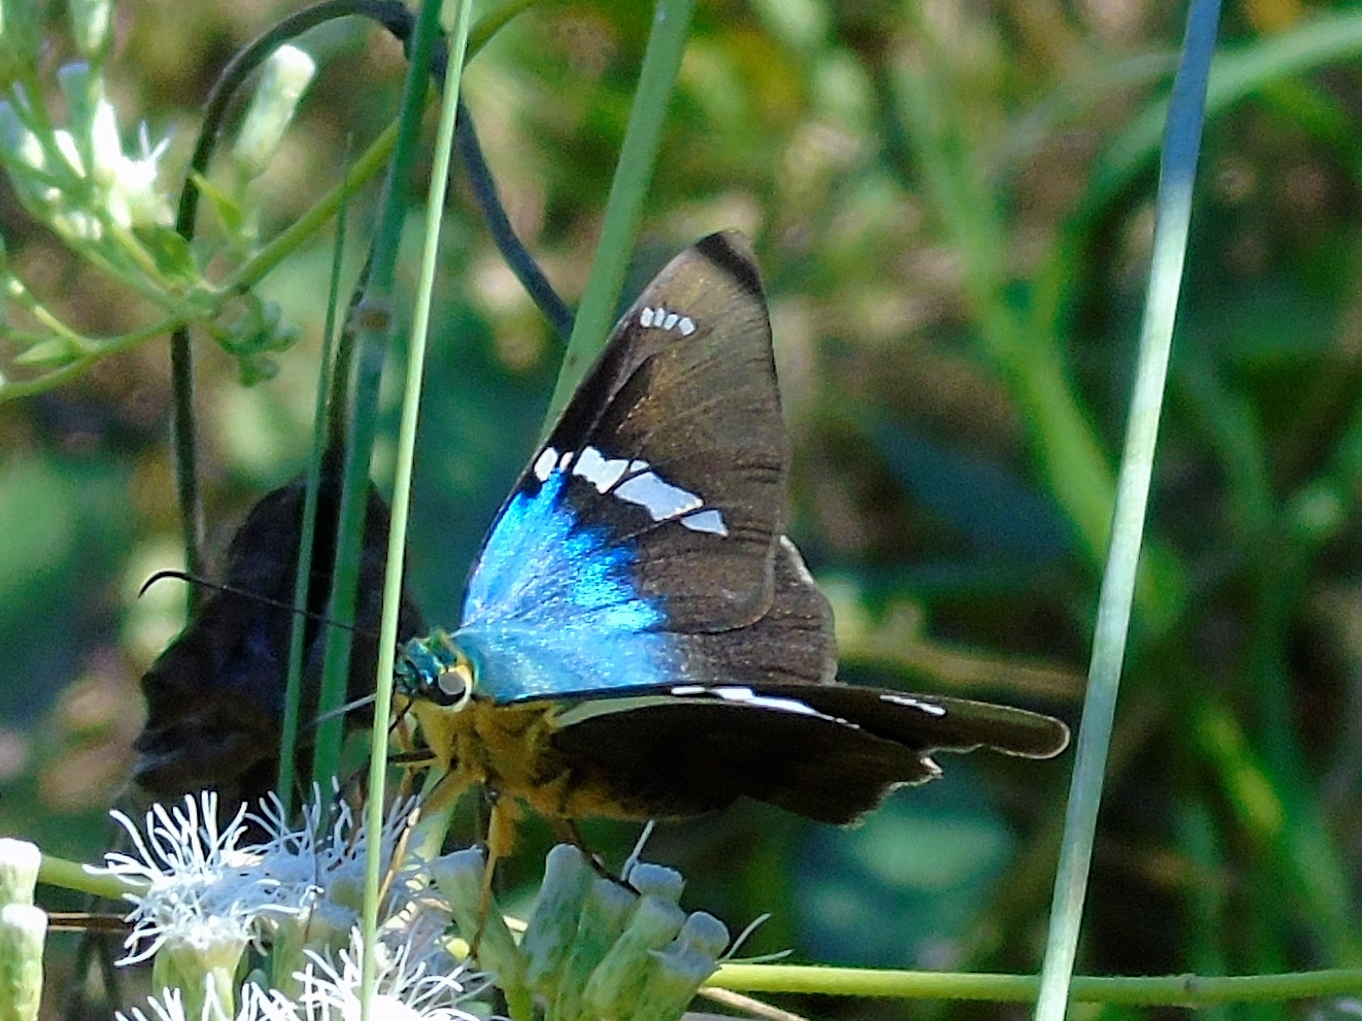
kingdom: Animalia
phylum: Arthropoda
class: Insecta
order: Lepidoptera
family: Hesperiidae
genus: Astraptes
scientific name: Astraptes fulgerator
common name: Two-barred flasher
